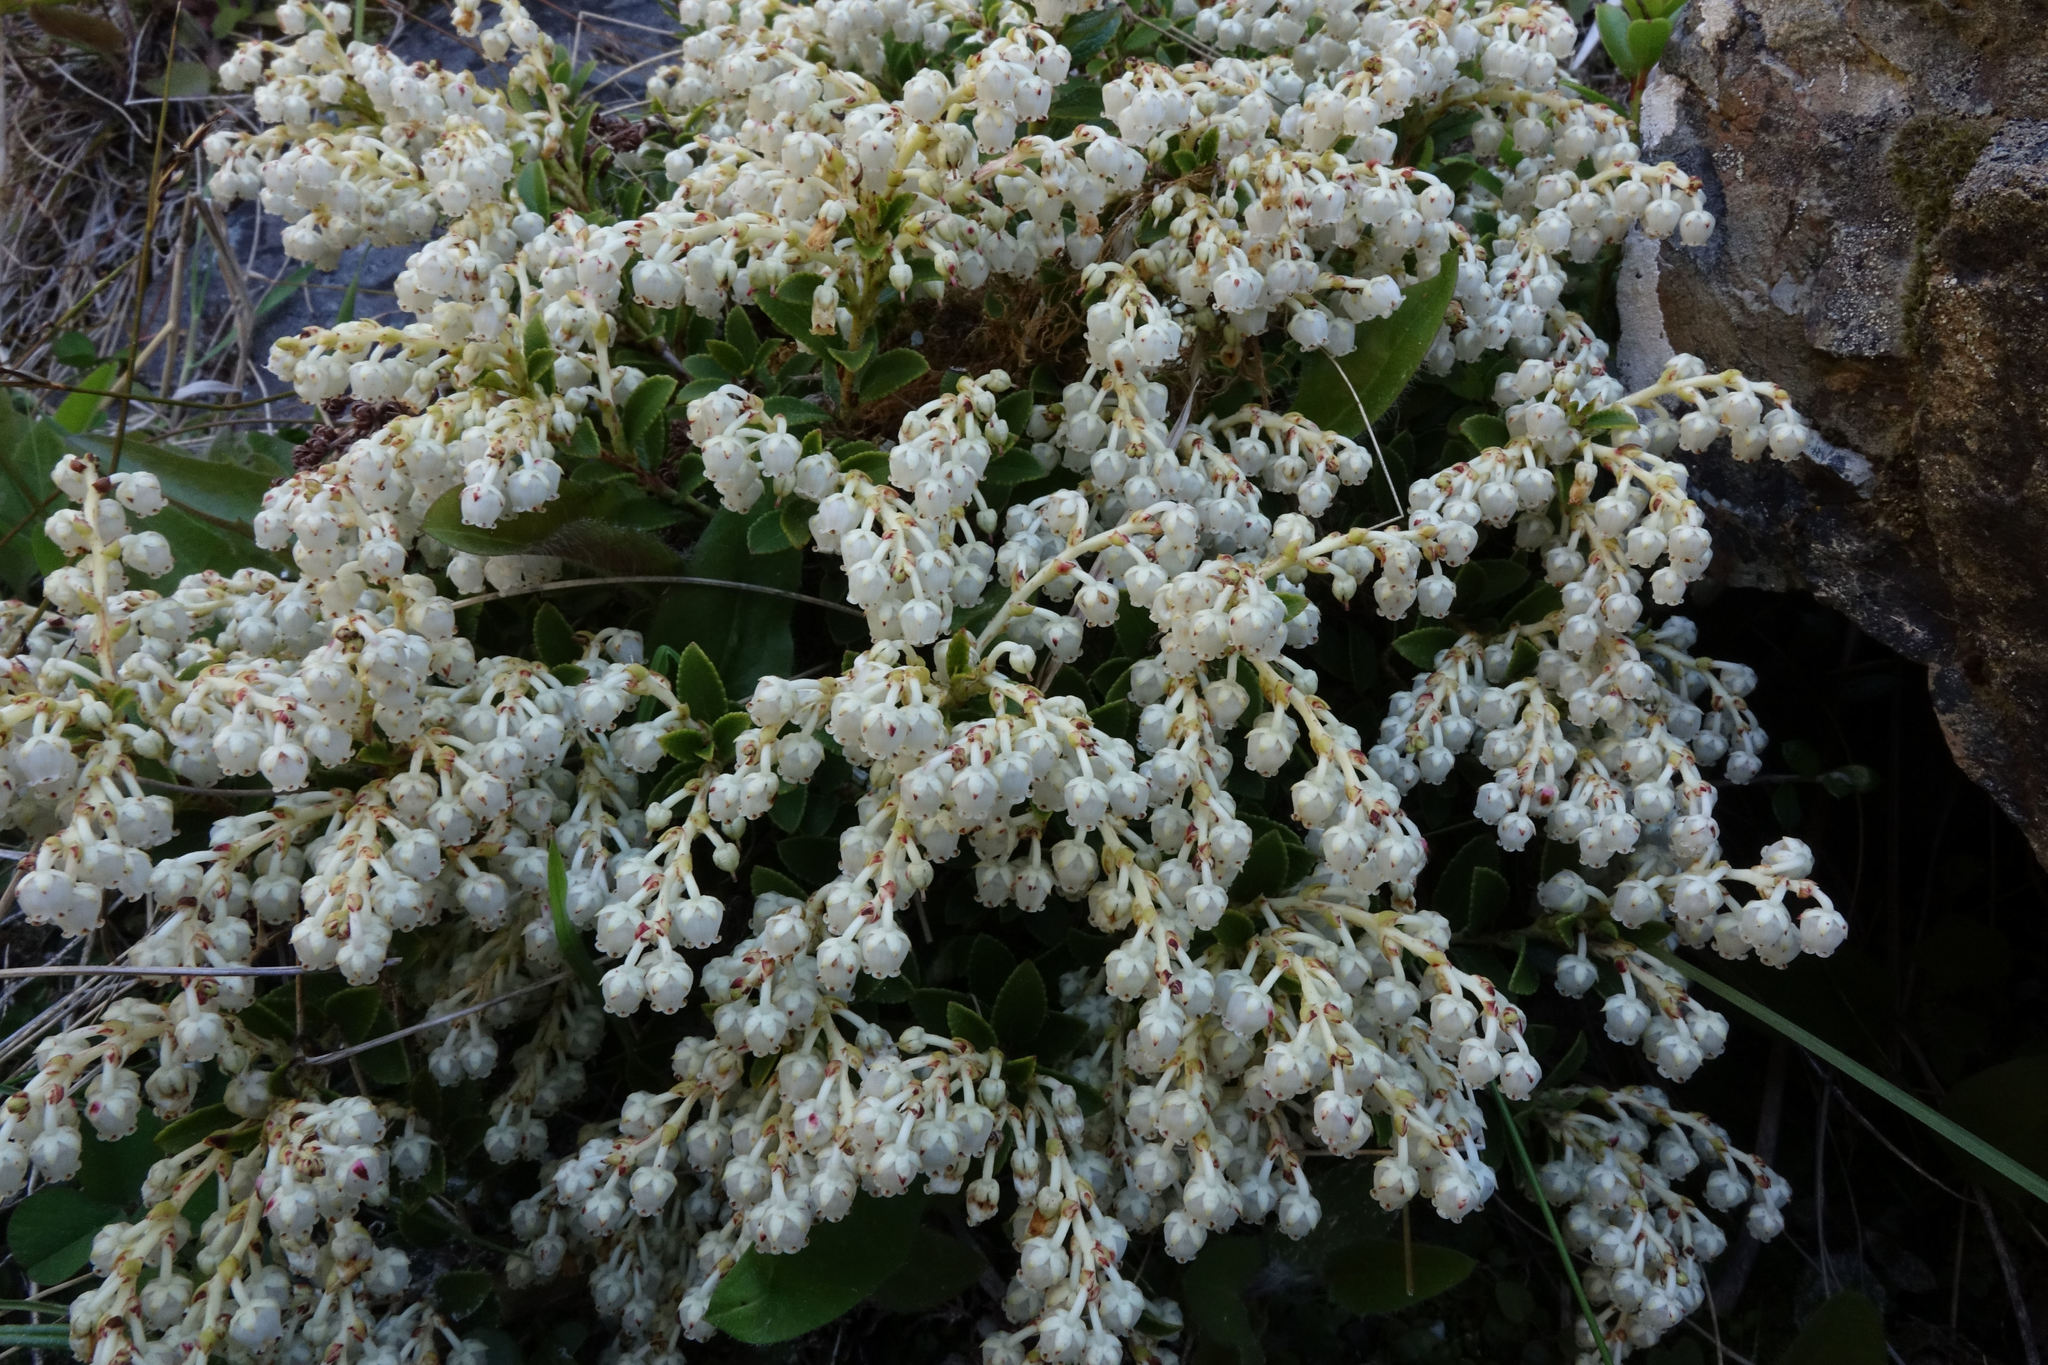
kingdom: Plantae
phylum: Tracheophyta
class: Magnoliopsida
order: Ericales
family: Ericaceae
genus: Gaultheria
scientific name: Gaultheria crassa
